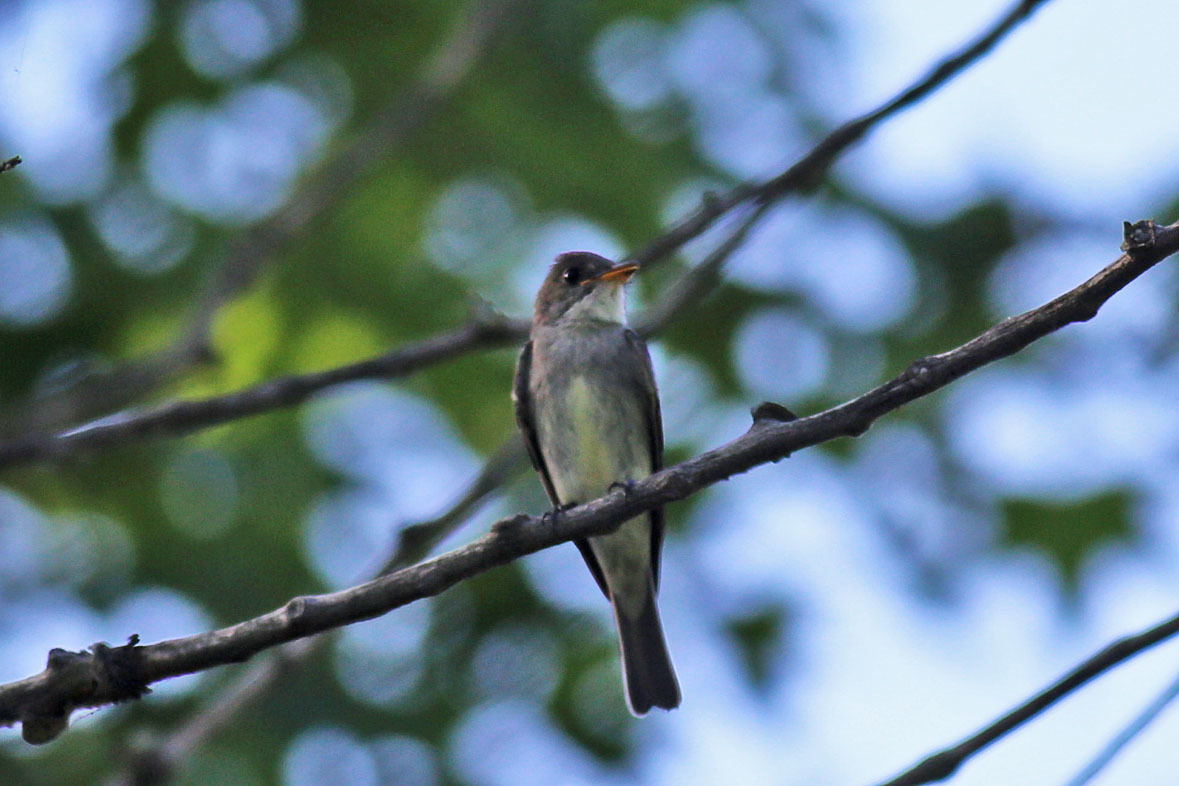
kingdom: Animalia
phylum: Chordata
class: Aves
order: Passeriformes
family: Tyrannidae
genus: Contopus
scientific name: Contopus virens
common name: Eastern wood-pewee
